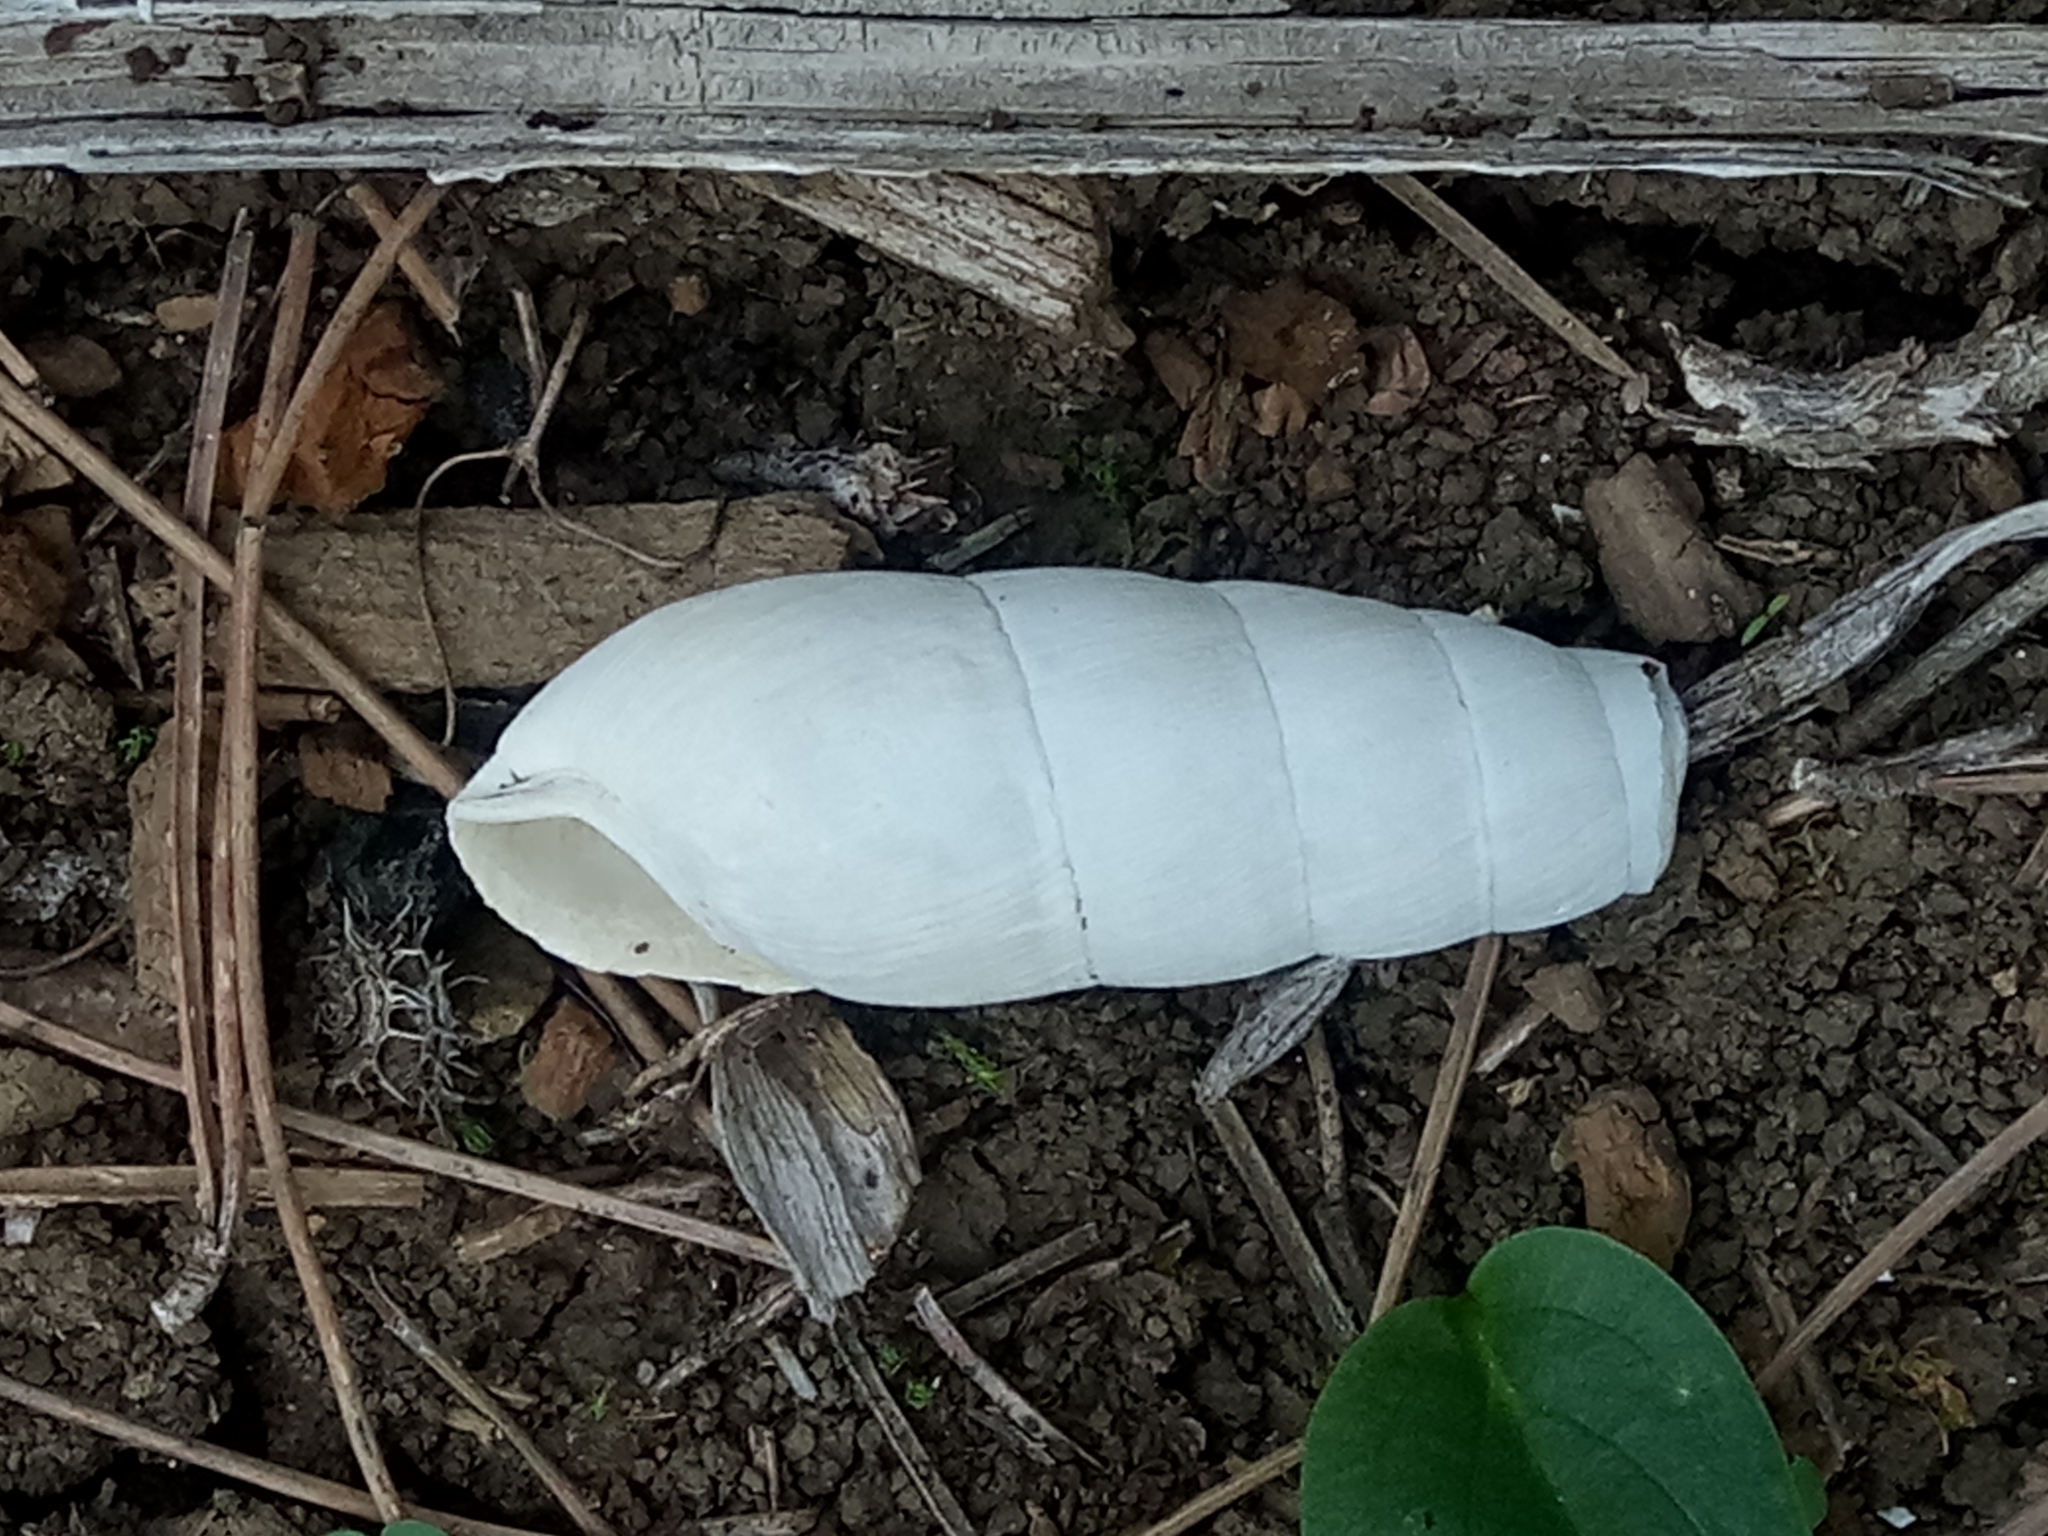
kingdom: Animalia
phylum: Mollusca
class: Gastropoda
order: Stylommatophora
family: Achatinidae
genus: Rumina
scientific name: Rumina decollata
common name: Decollate snail
